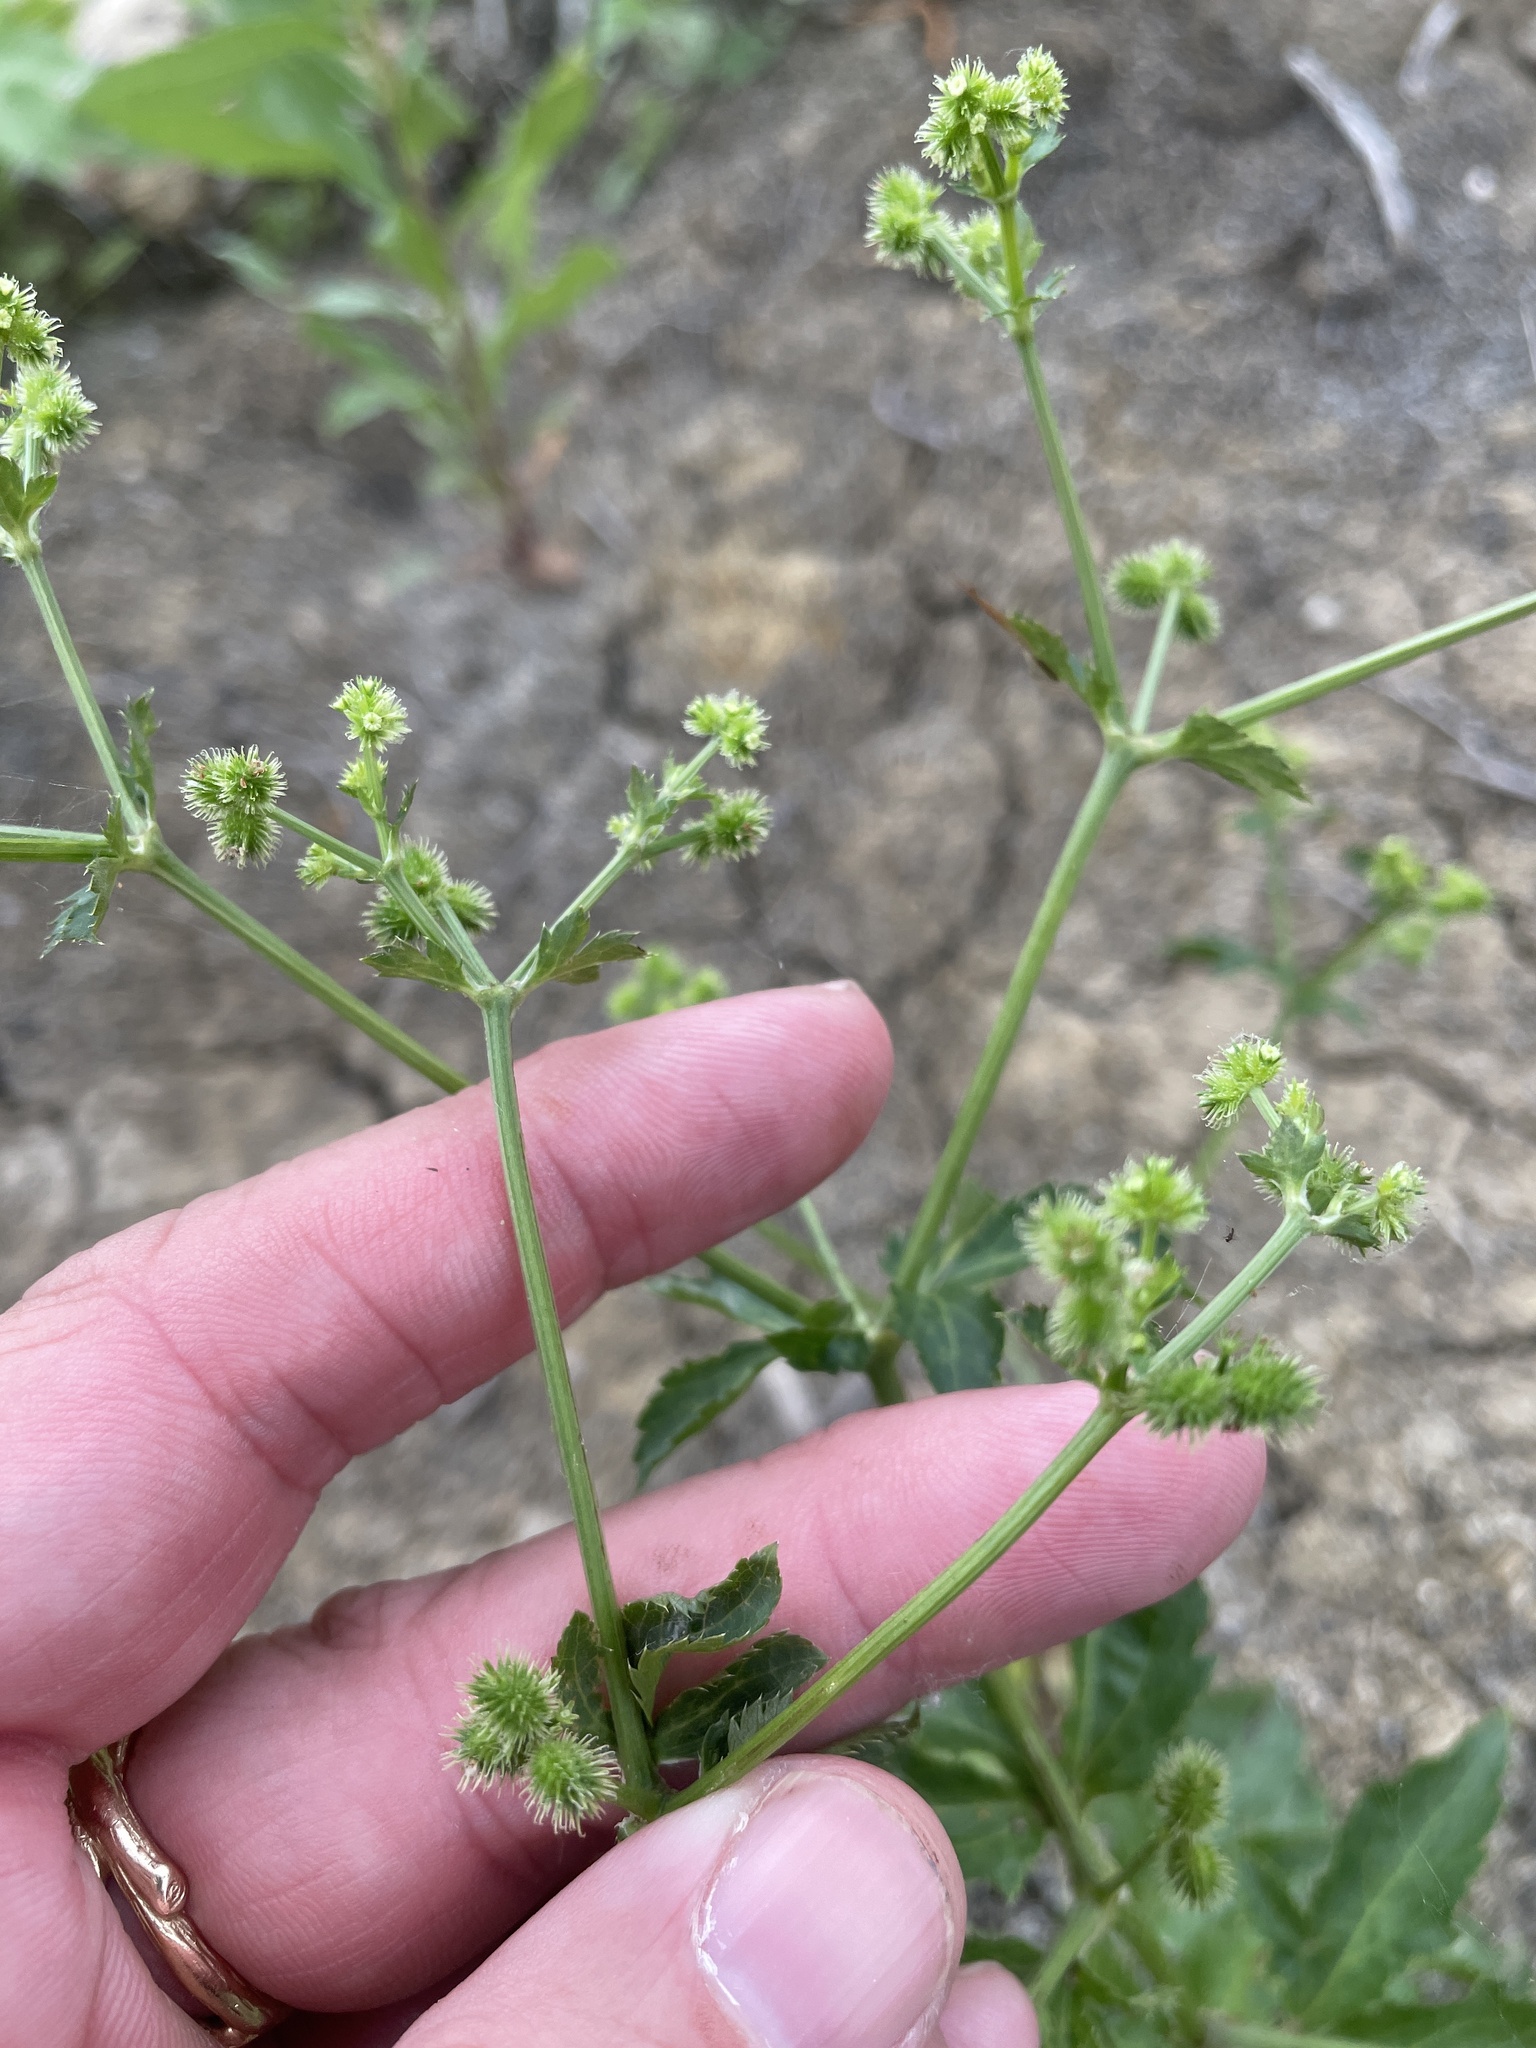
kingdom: Plantae
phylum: Tracheophyta
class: Magnoliopsida
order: Apiales
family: Apiaceae
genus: Sanicula
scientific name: Sanicula canadensis
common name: Canada sanicle
